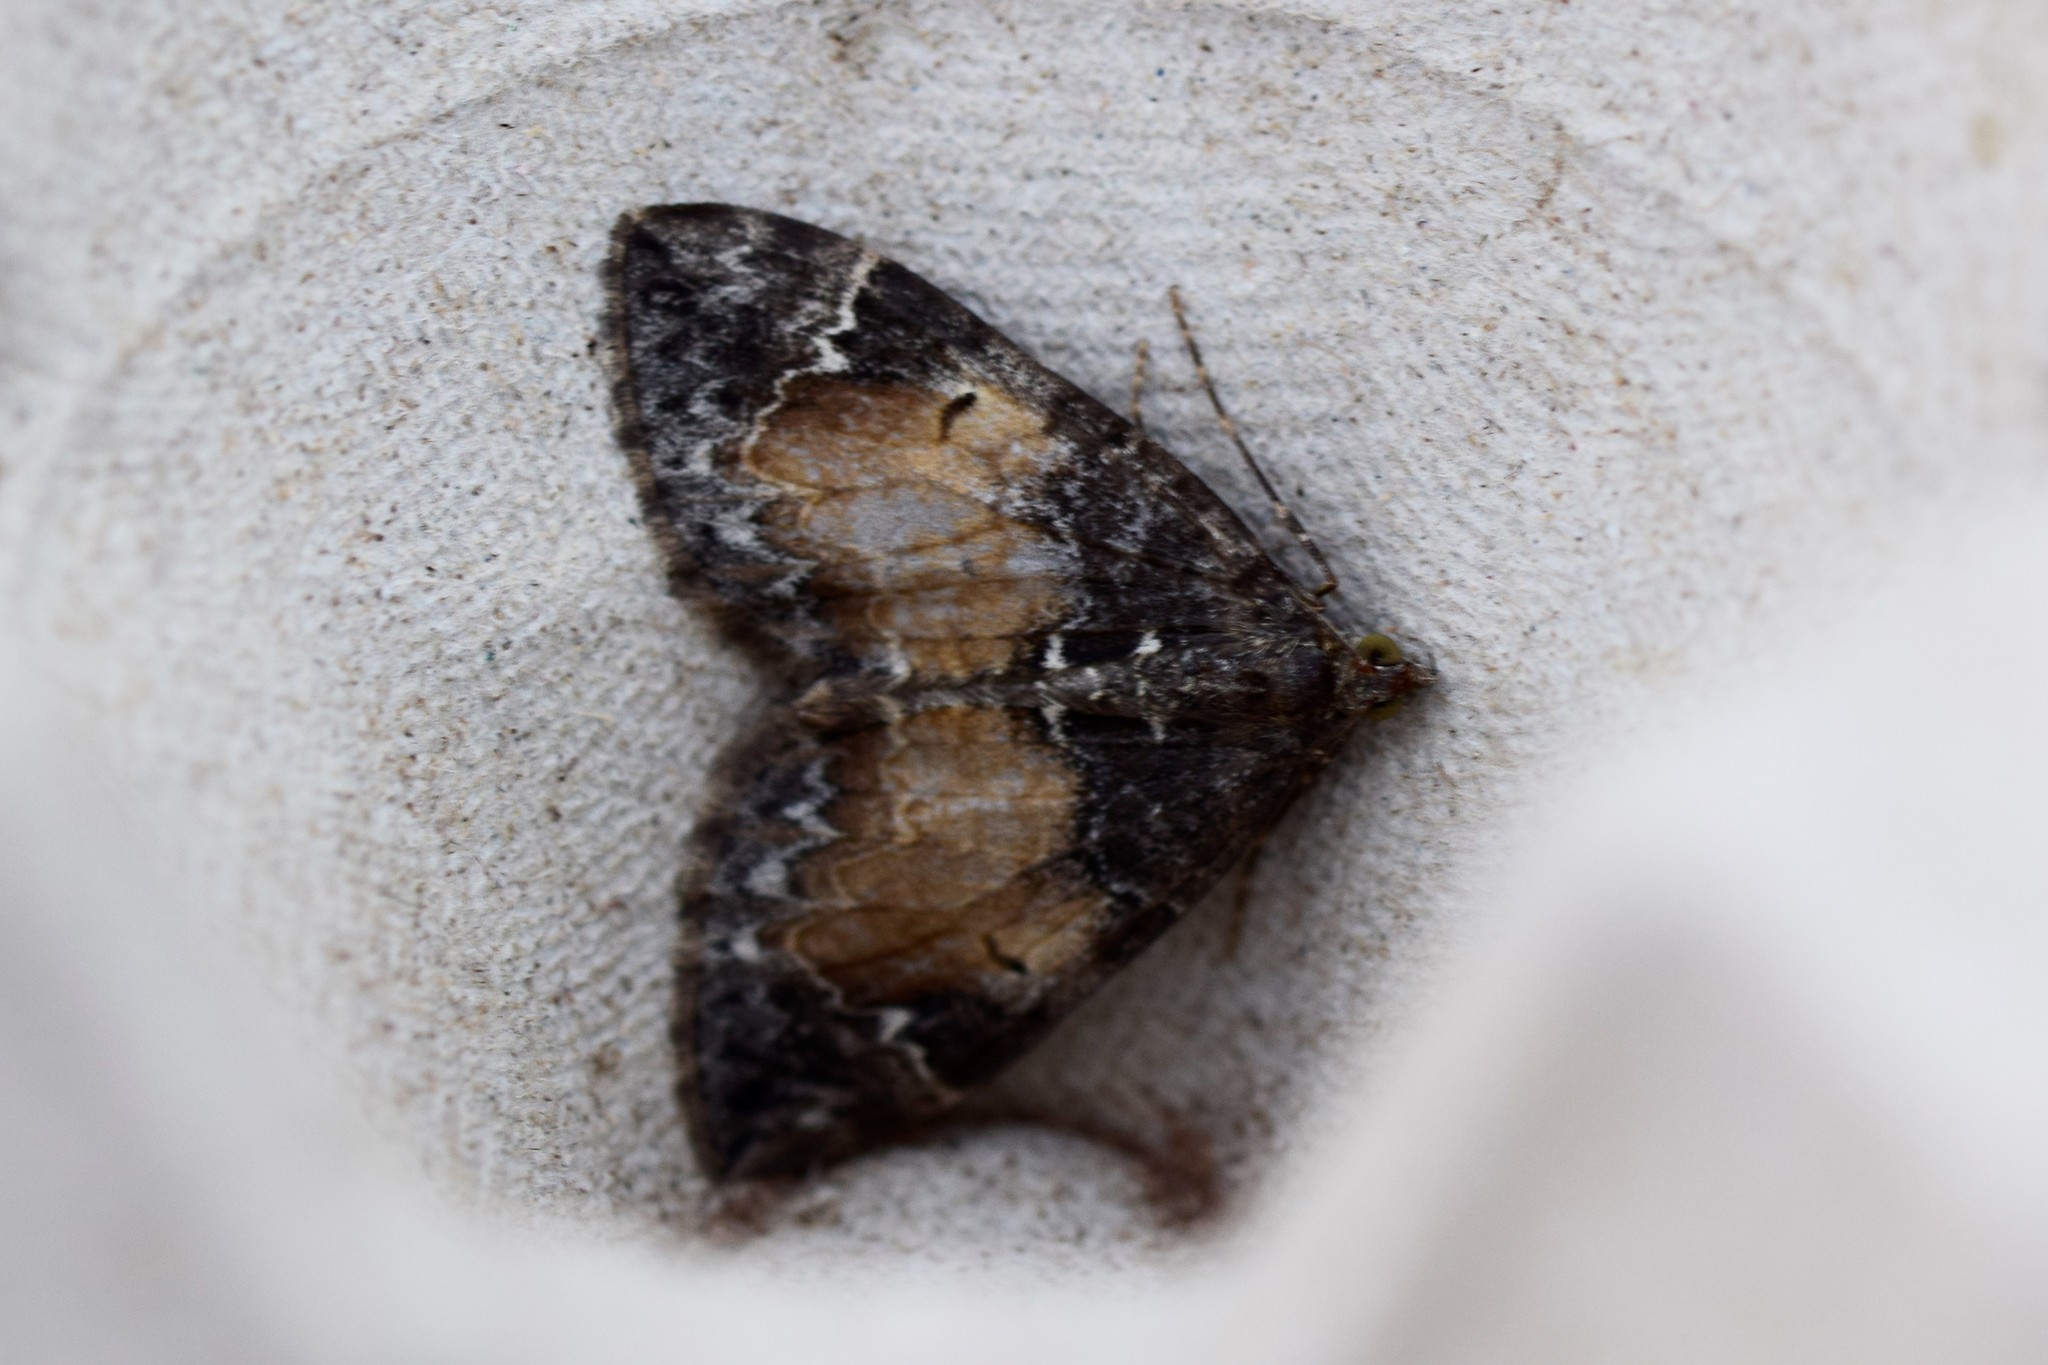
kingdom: Animalia
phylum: Arthropoda
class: Insecta
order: Lepidoptera
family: Geometridae
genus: Dysstroma
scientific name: Dysstroma truncata
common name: Common marbled carpet
